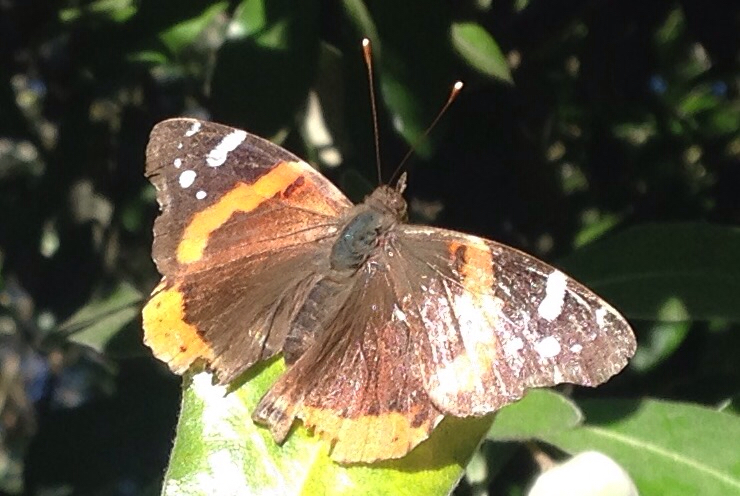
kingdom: Animalia
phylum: Arthropoda
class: Insecta
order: Lepidoptera
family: Nymphalidae
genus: Vanessa
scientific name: Vanessa atalanta
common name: Red admiral
